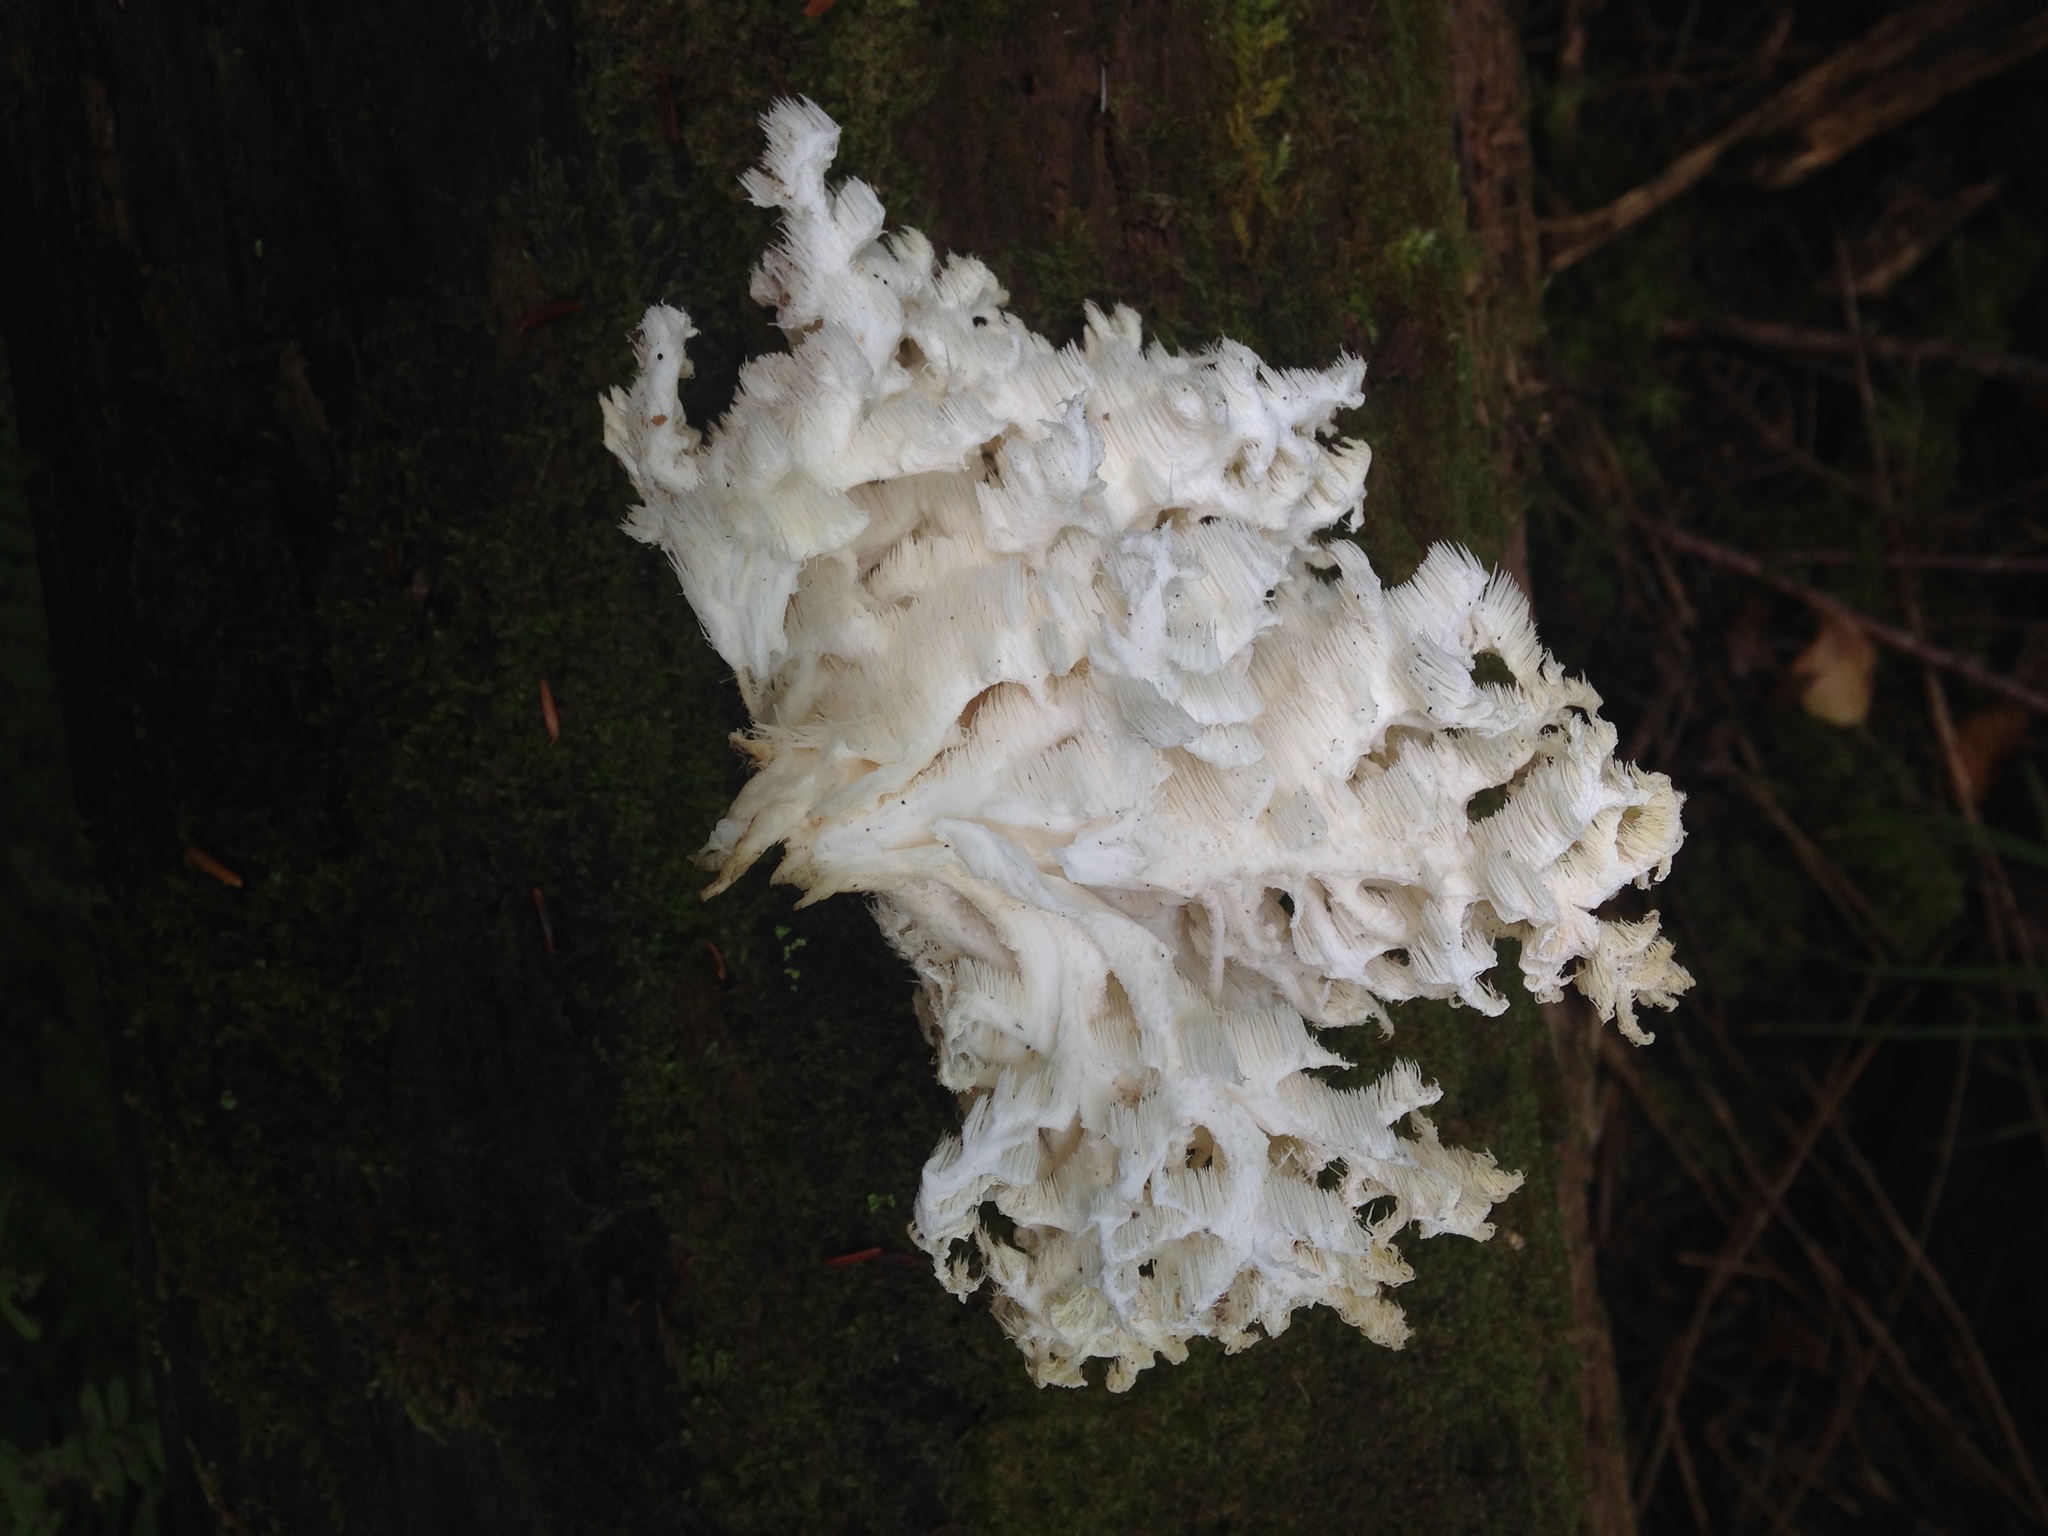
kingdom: Fungi
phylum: Basidiomycota
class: Agaricomycetes
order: Russulales
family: Hericiaceae
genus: Hericium
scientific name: Hericium coralloides
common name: Coral tooth
